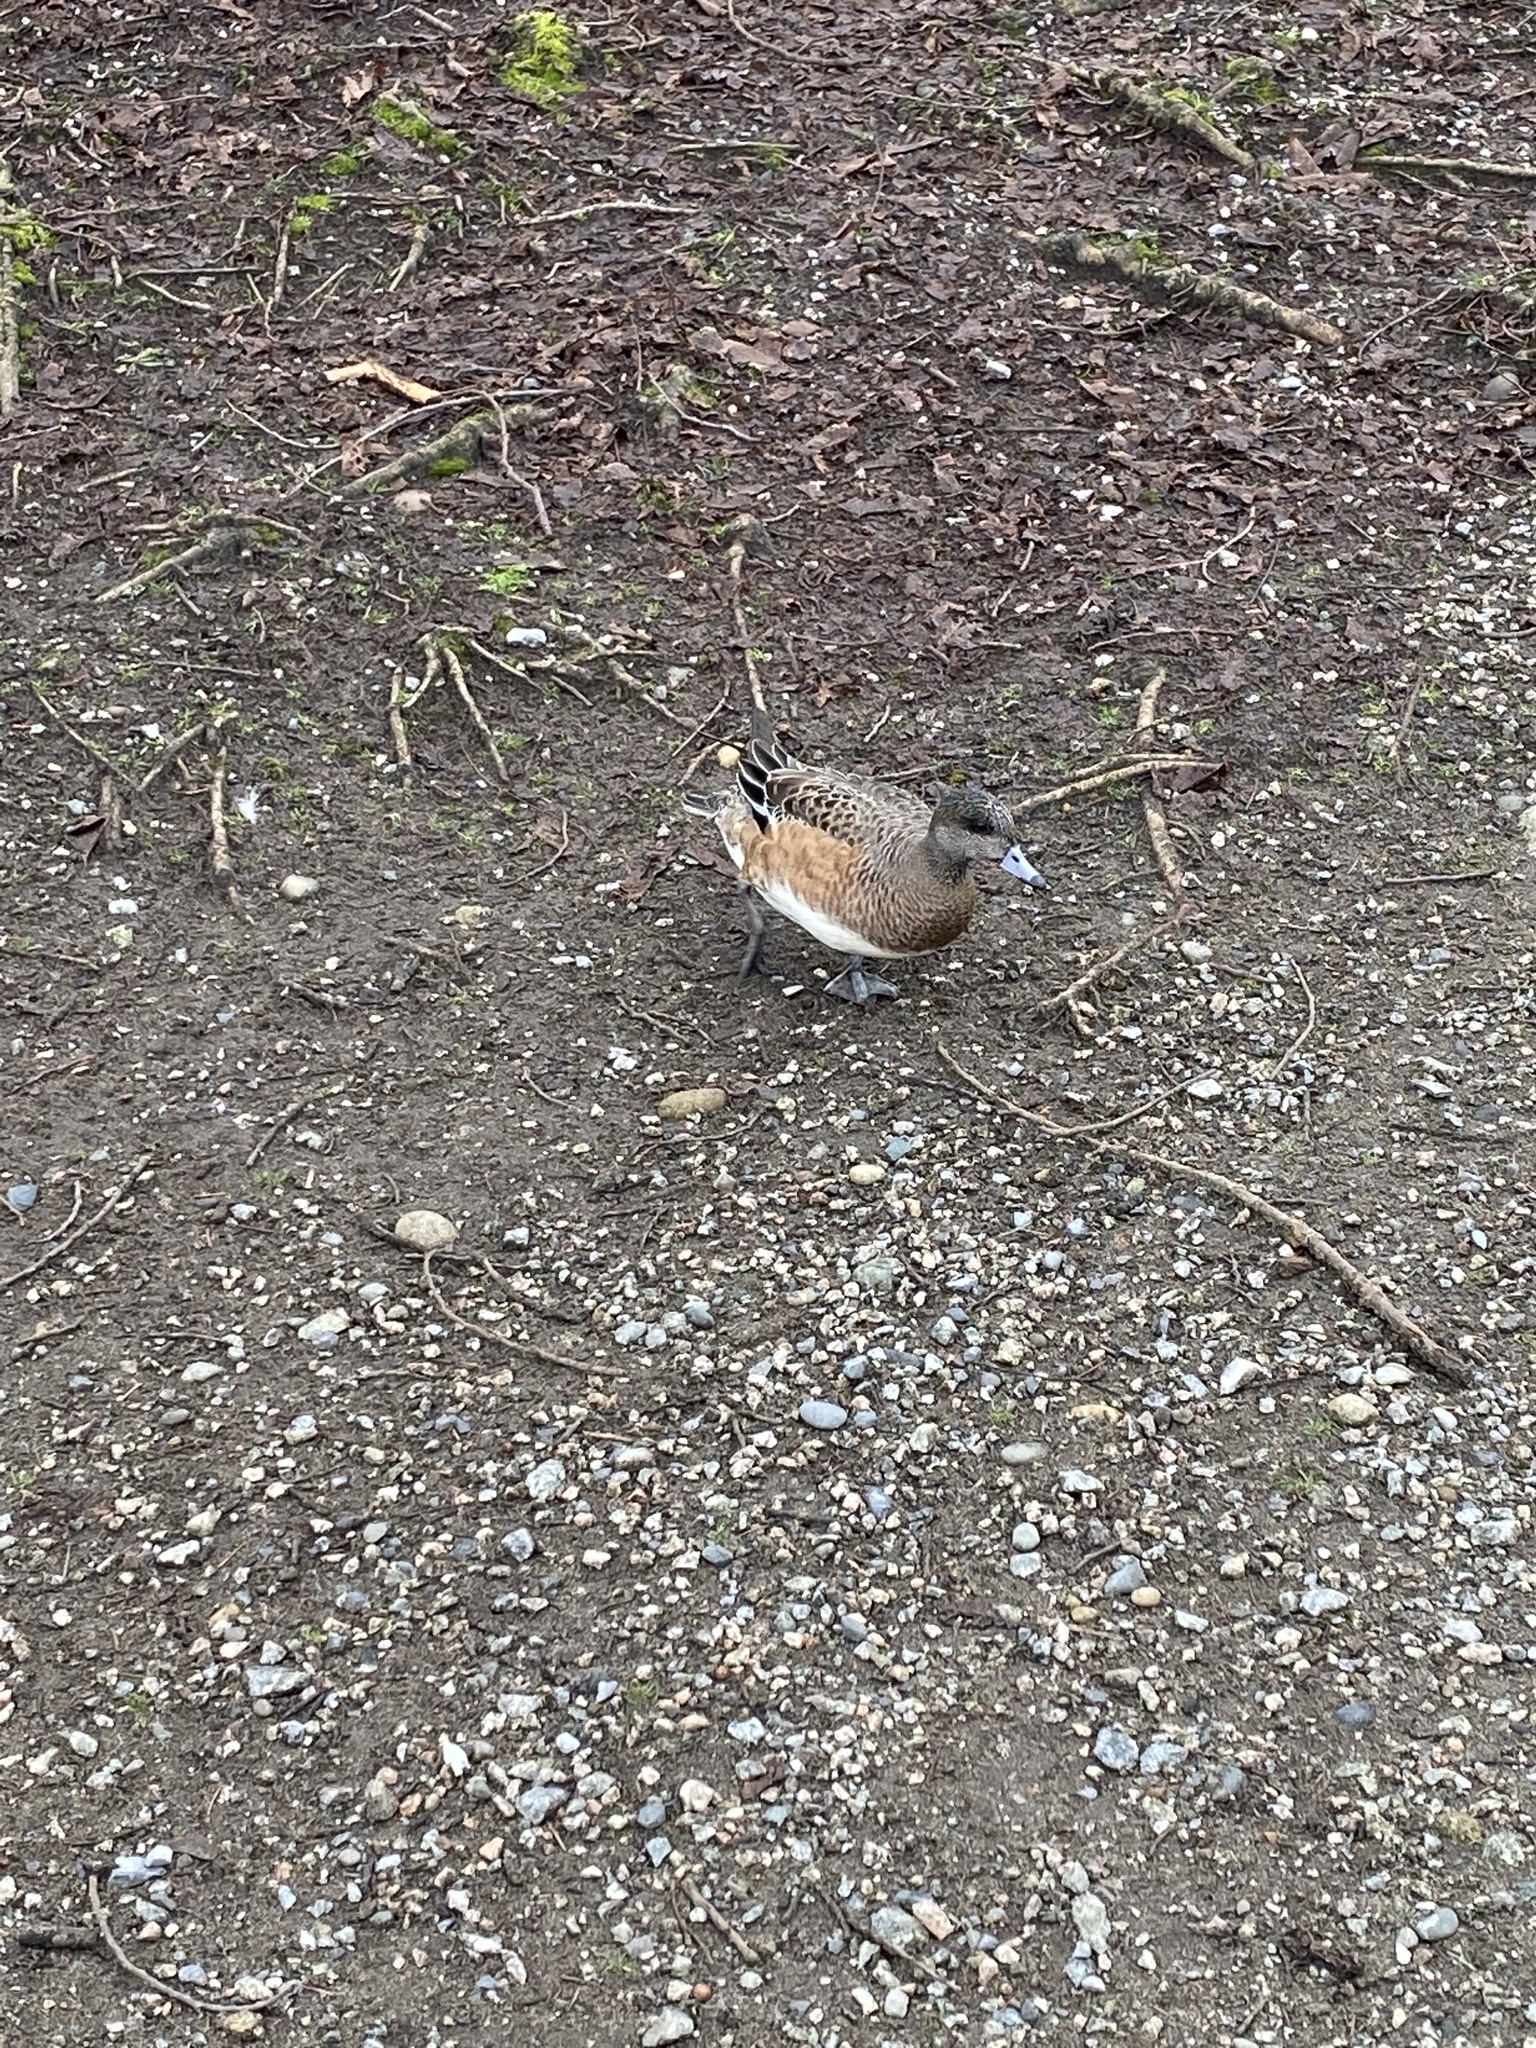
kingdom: Animalia
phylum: Chordata
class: Aves
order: Anseriformes
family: Anatidae
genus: Mareca
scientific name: Mareca americana
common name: American wigeon
